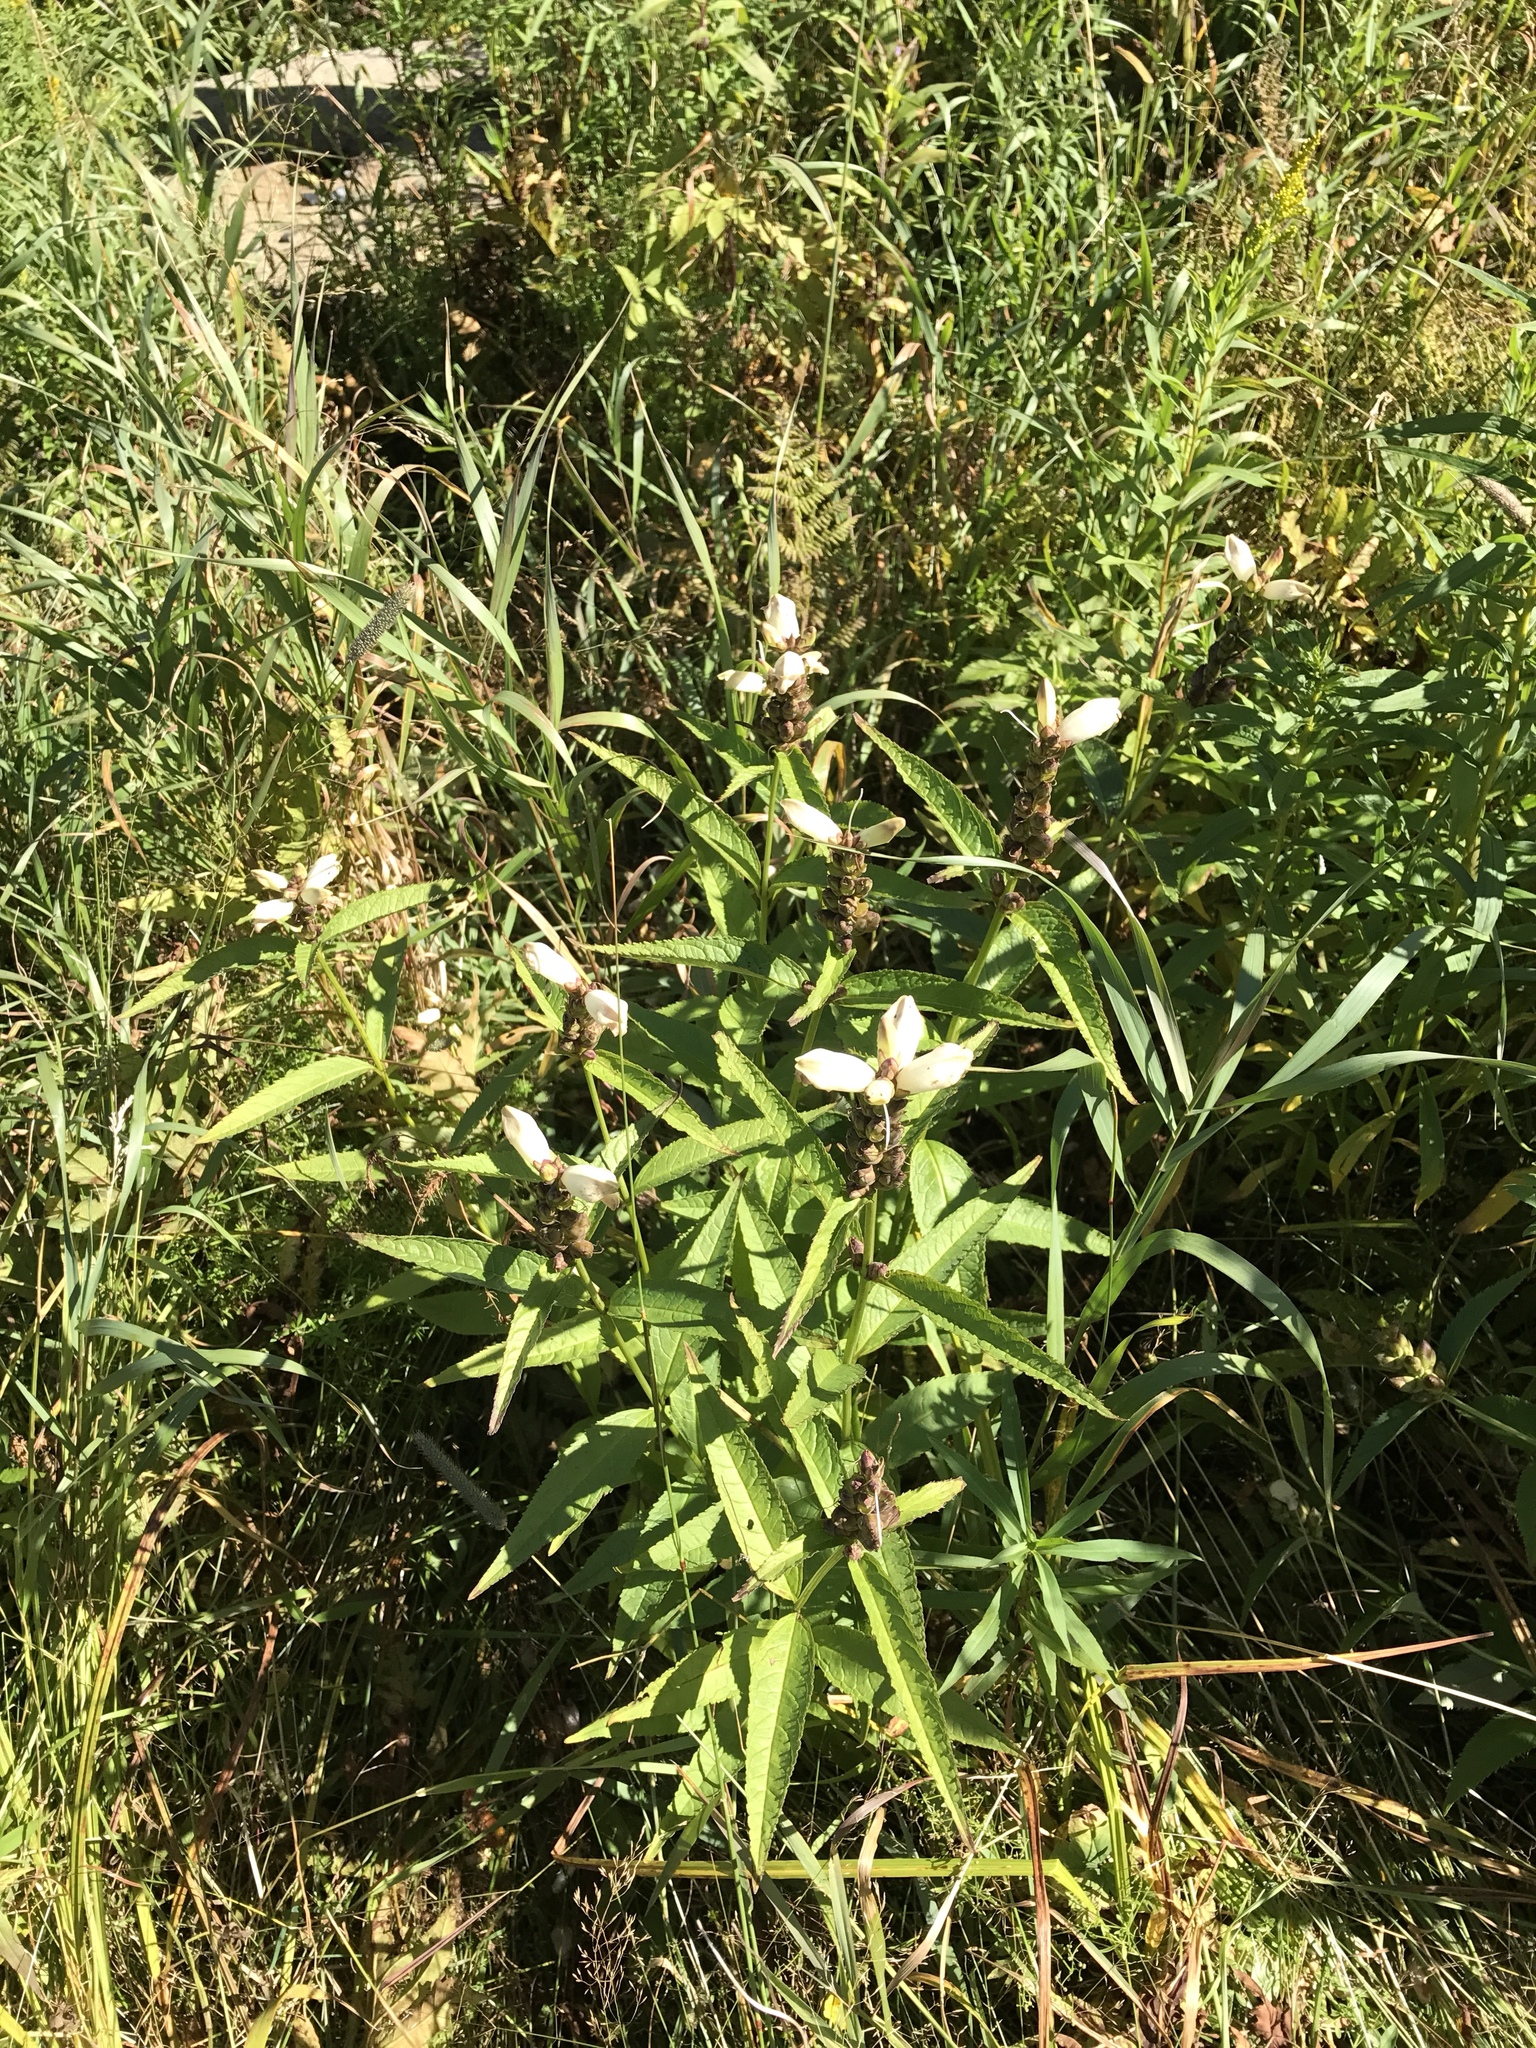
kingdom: Plantae
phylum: Tracheophyta
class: Magnoliopsida
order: Lamiales
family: Plantaginaceae
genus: Chelone
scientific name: Chelone glabra
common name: Snakehead
